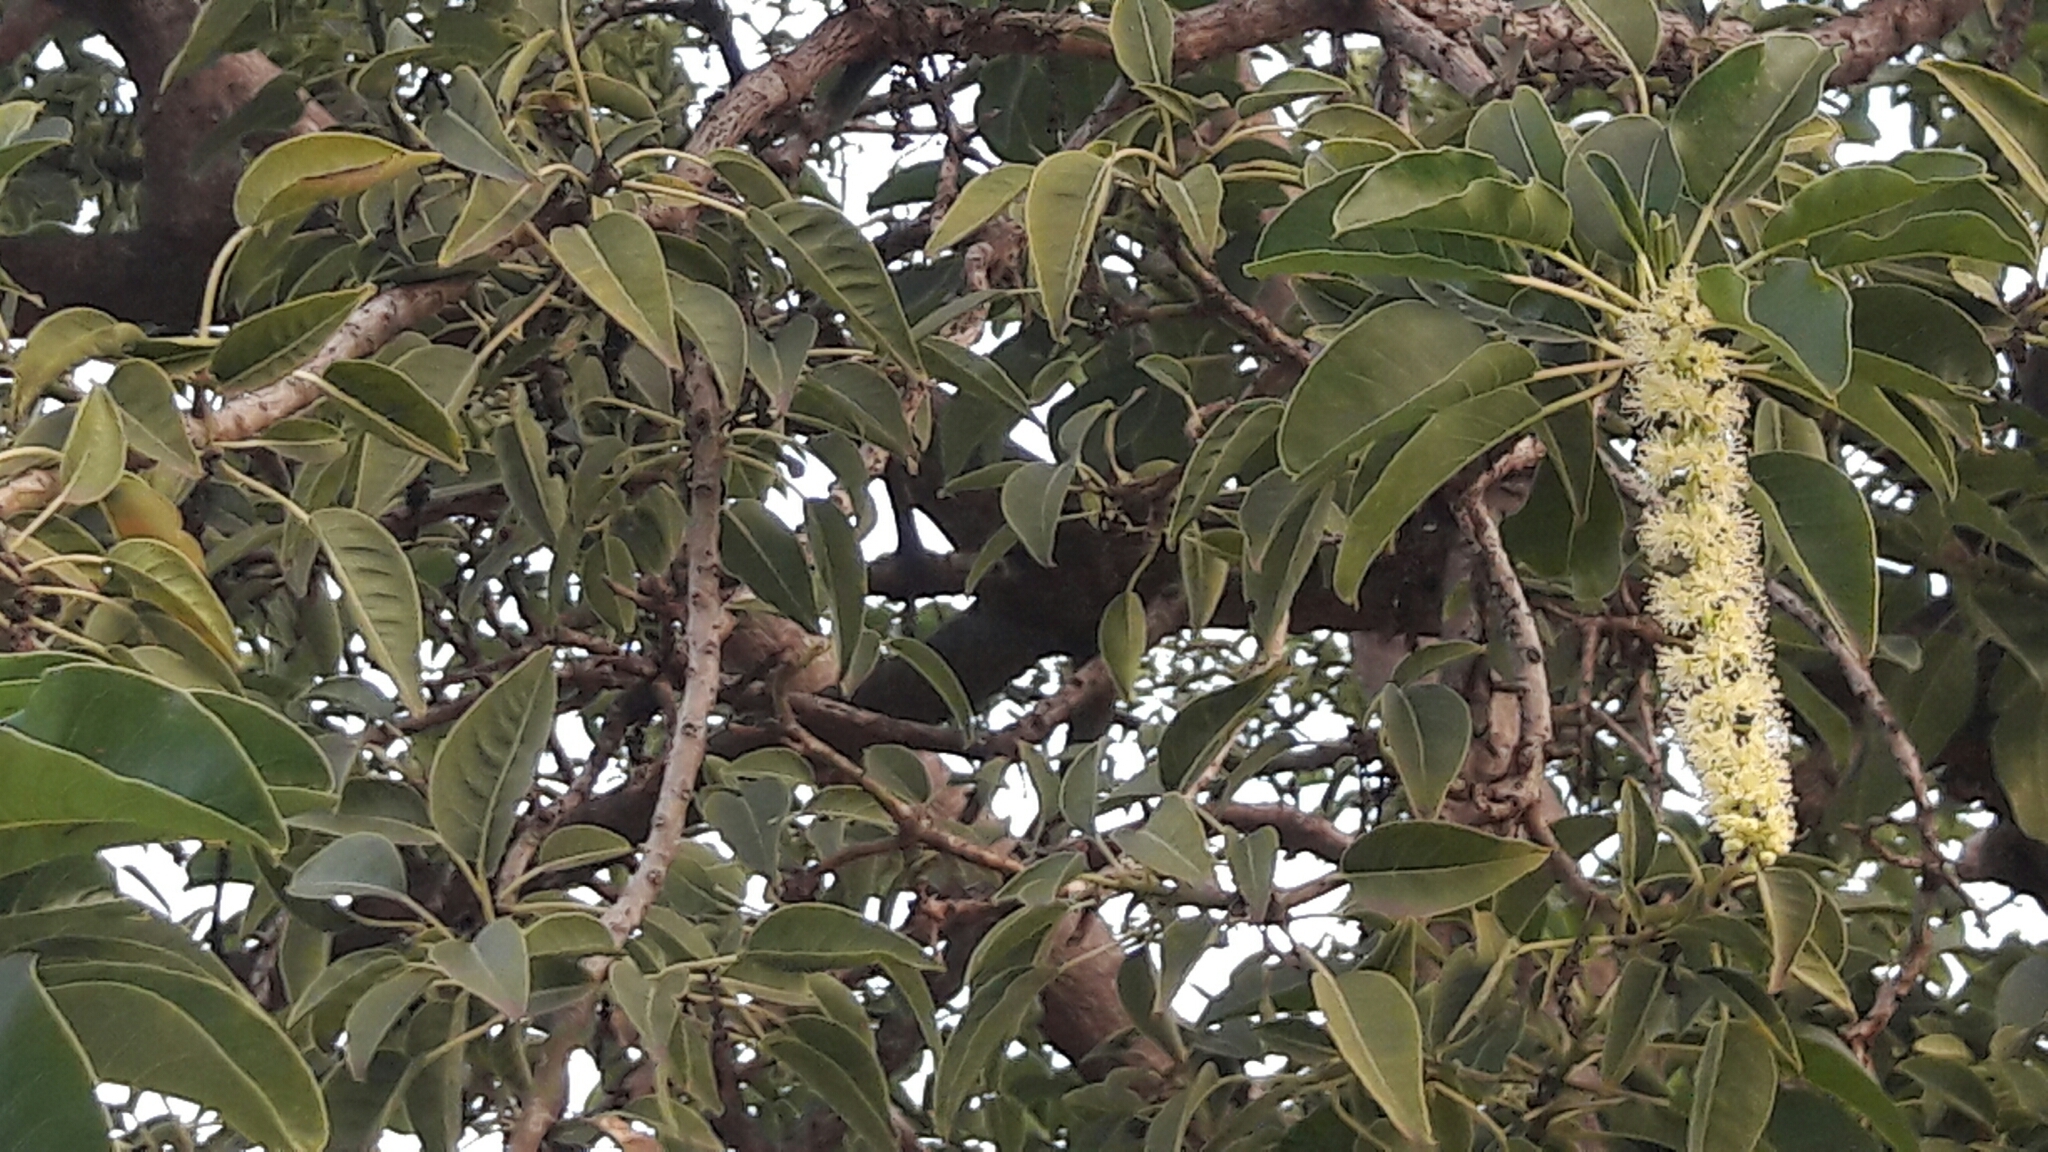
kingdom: Plantae
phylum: Tracheophyta
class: Magnoliopsida
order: Caryophyllales
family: Phytolaccaceae
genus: Phytolacca
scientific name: Phytolacca dioica
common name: Pokeweed
